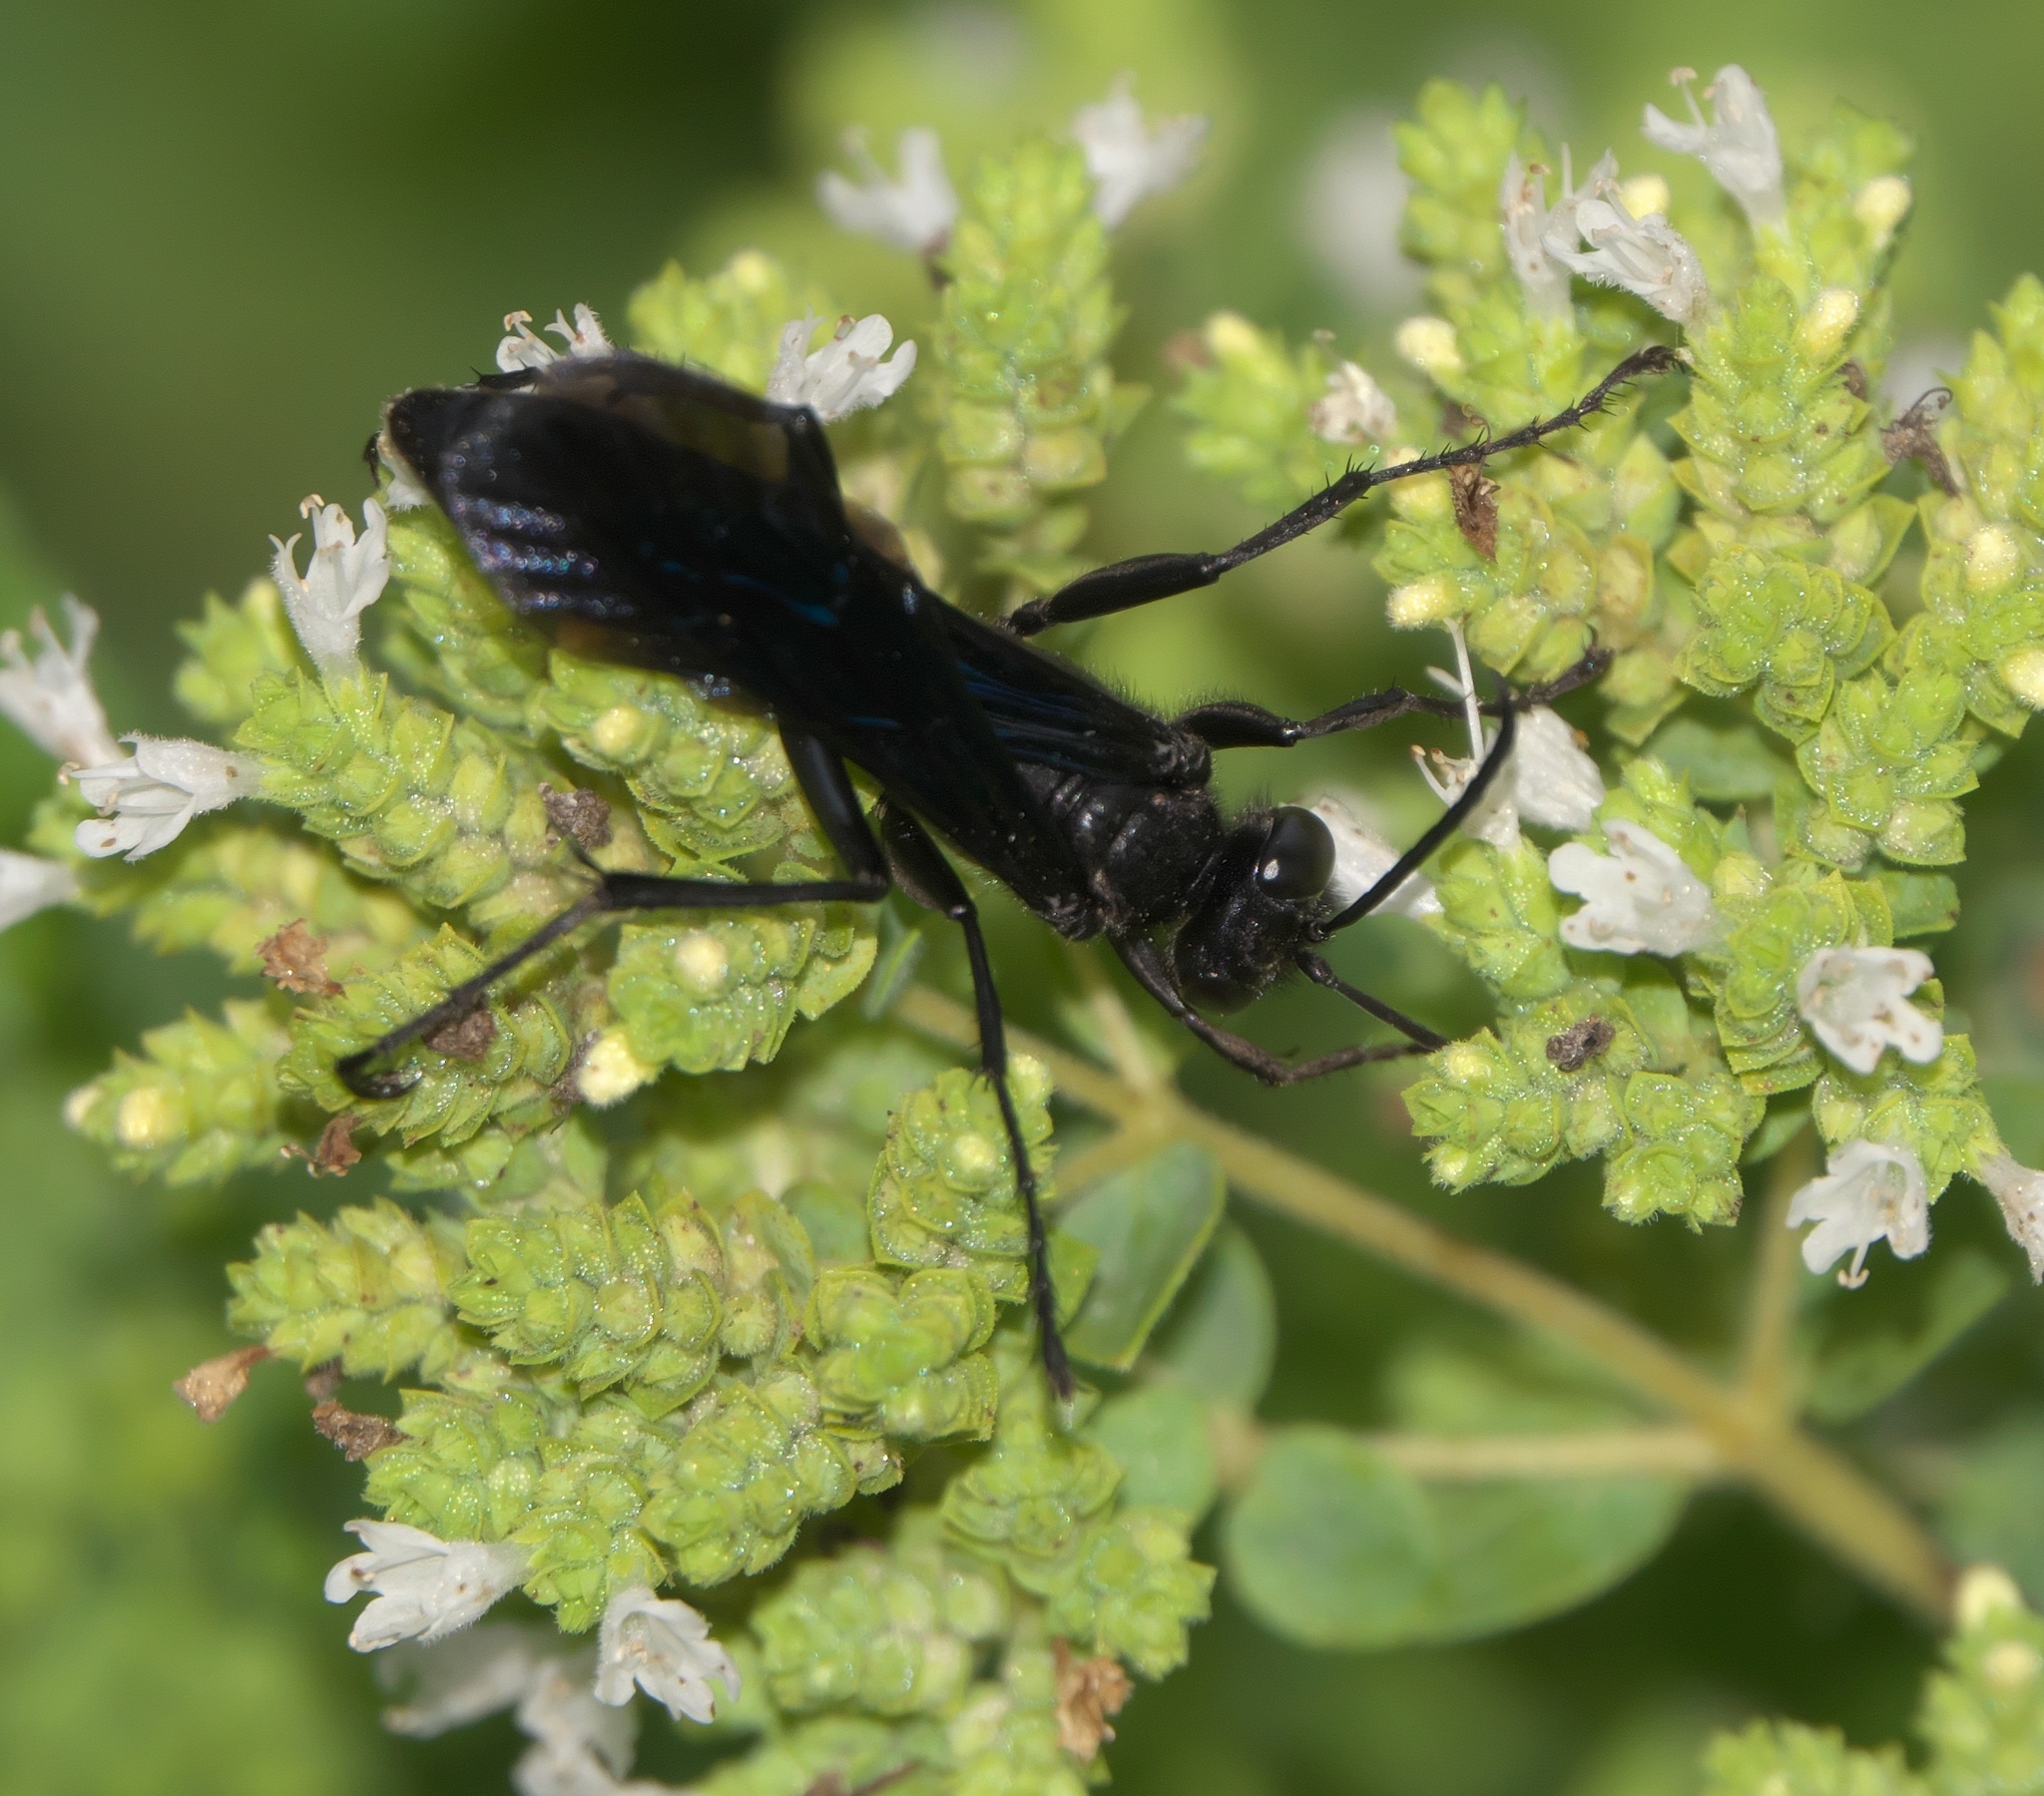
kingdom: Animalia
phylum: Arthropoda
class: Insecta
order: Hymenoptera
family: Sphecidae
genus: Sphex
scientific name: Sphex pensylvanicus
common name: Great black digger wasp
